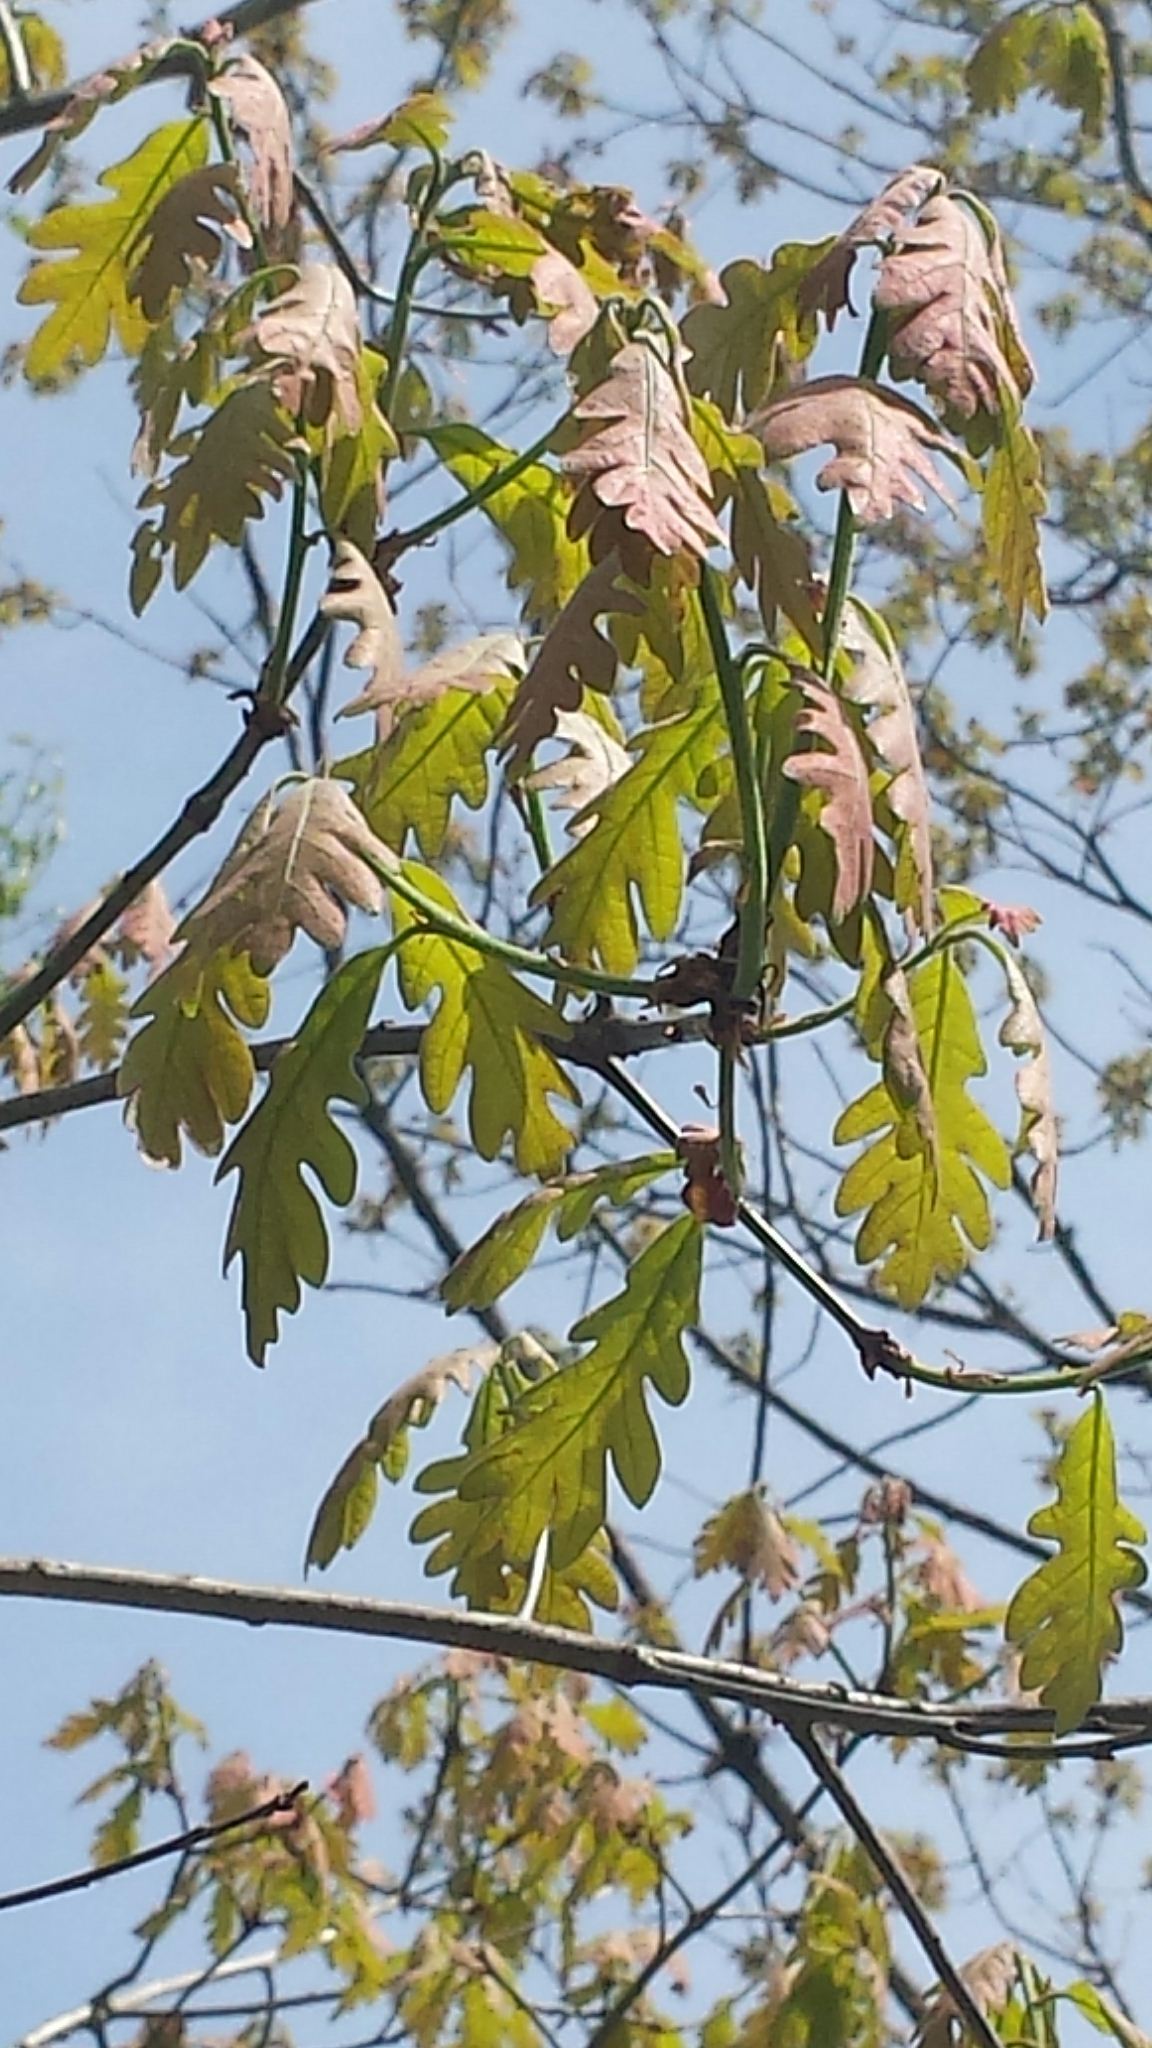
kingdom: Plantae
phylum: Tracheophyta
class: Magnoliopsida
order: Fagales
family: Fagaceae
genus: Quercus
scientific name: Quercus alba
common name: White oak
